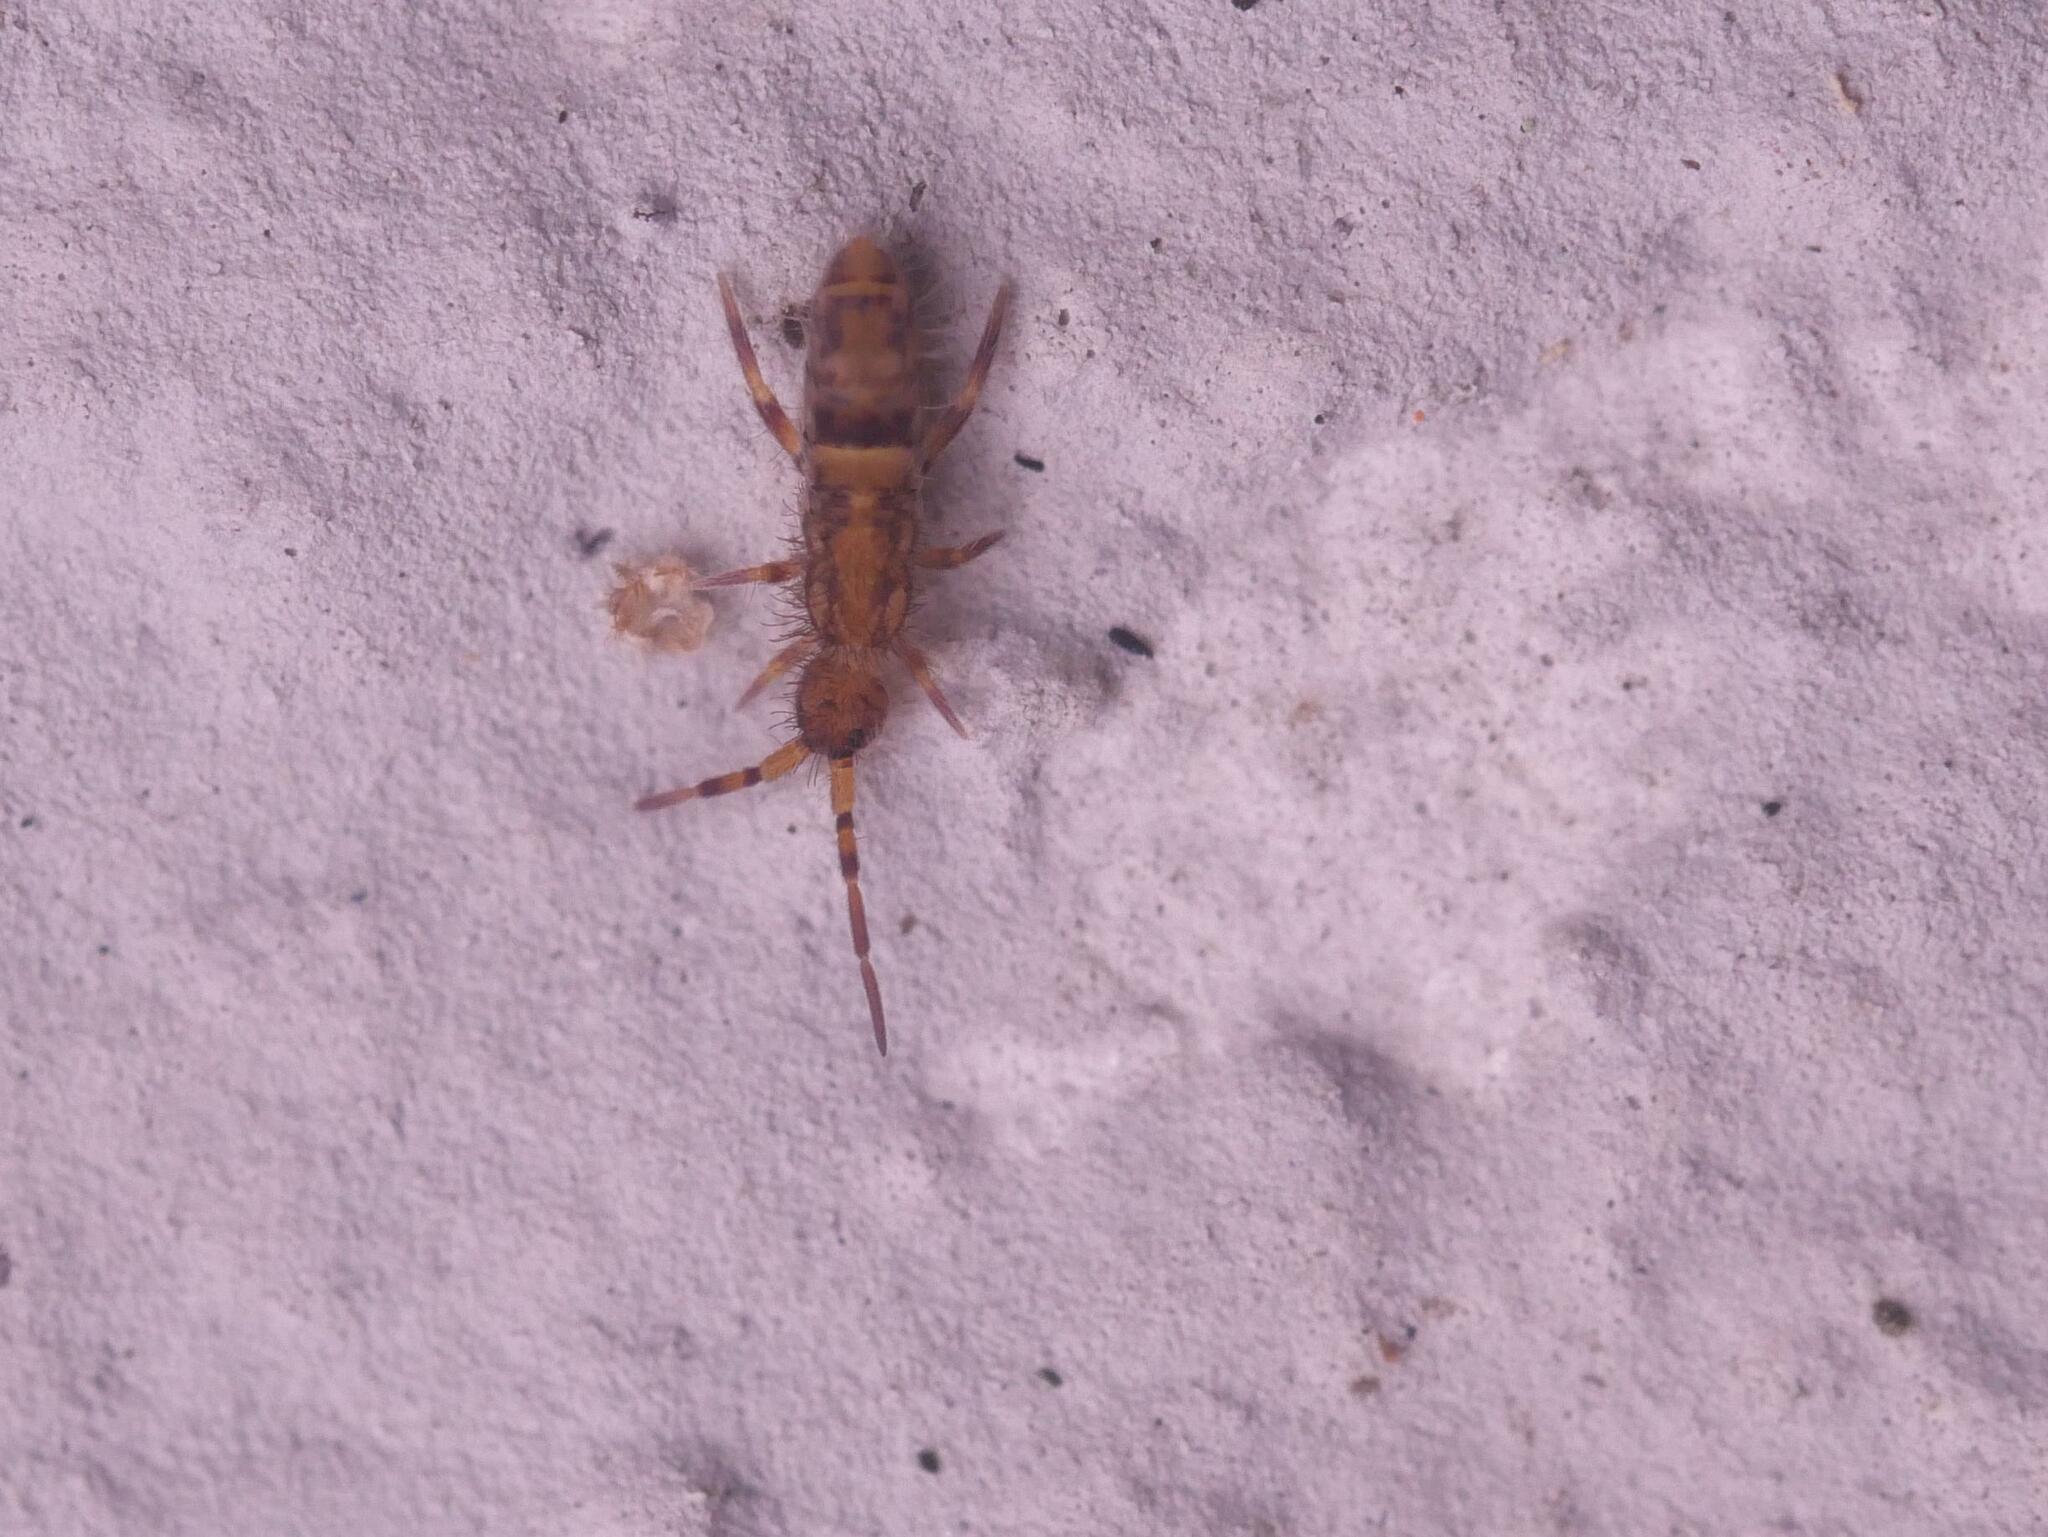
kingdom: Animalia
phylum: Arthropoda
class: Collembola
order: Entomobryomorpha
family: Orchesellidae
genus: Orchesella
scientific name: Orchesella cincta
